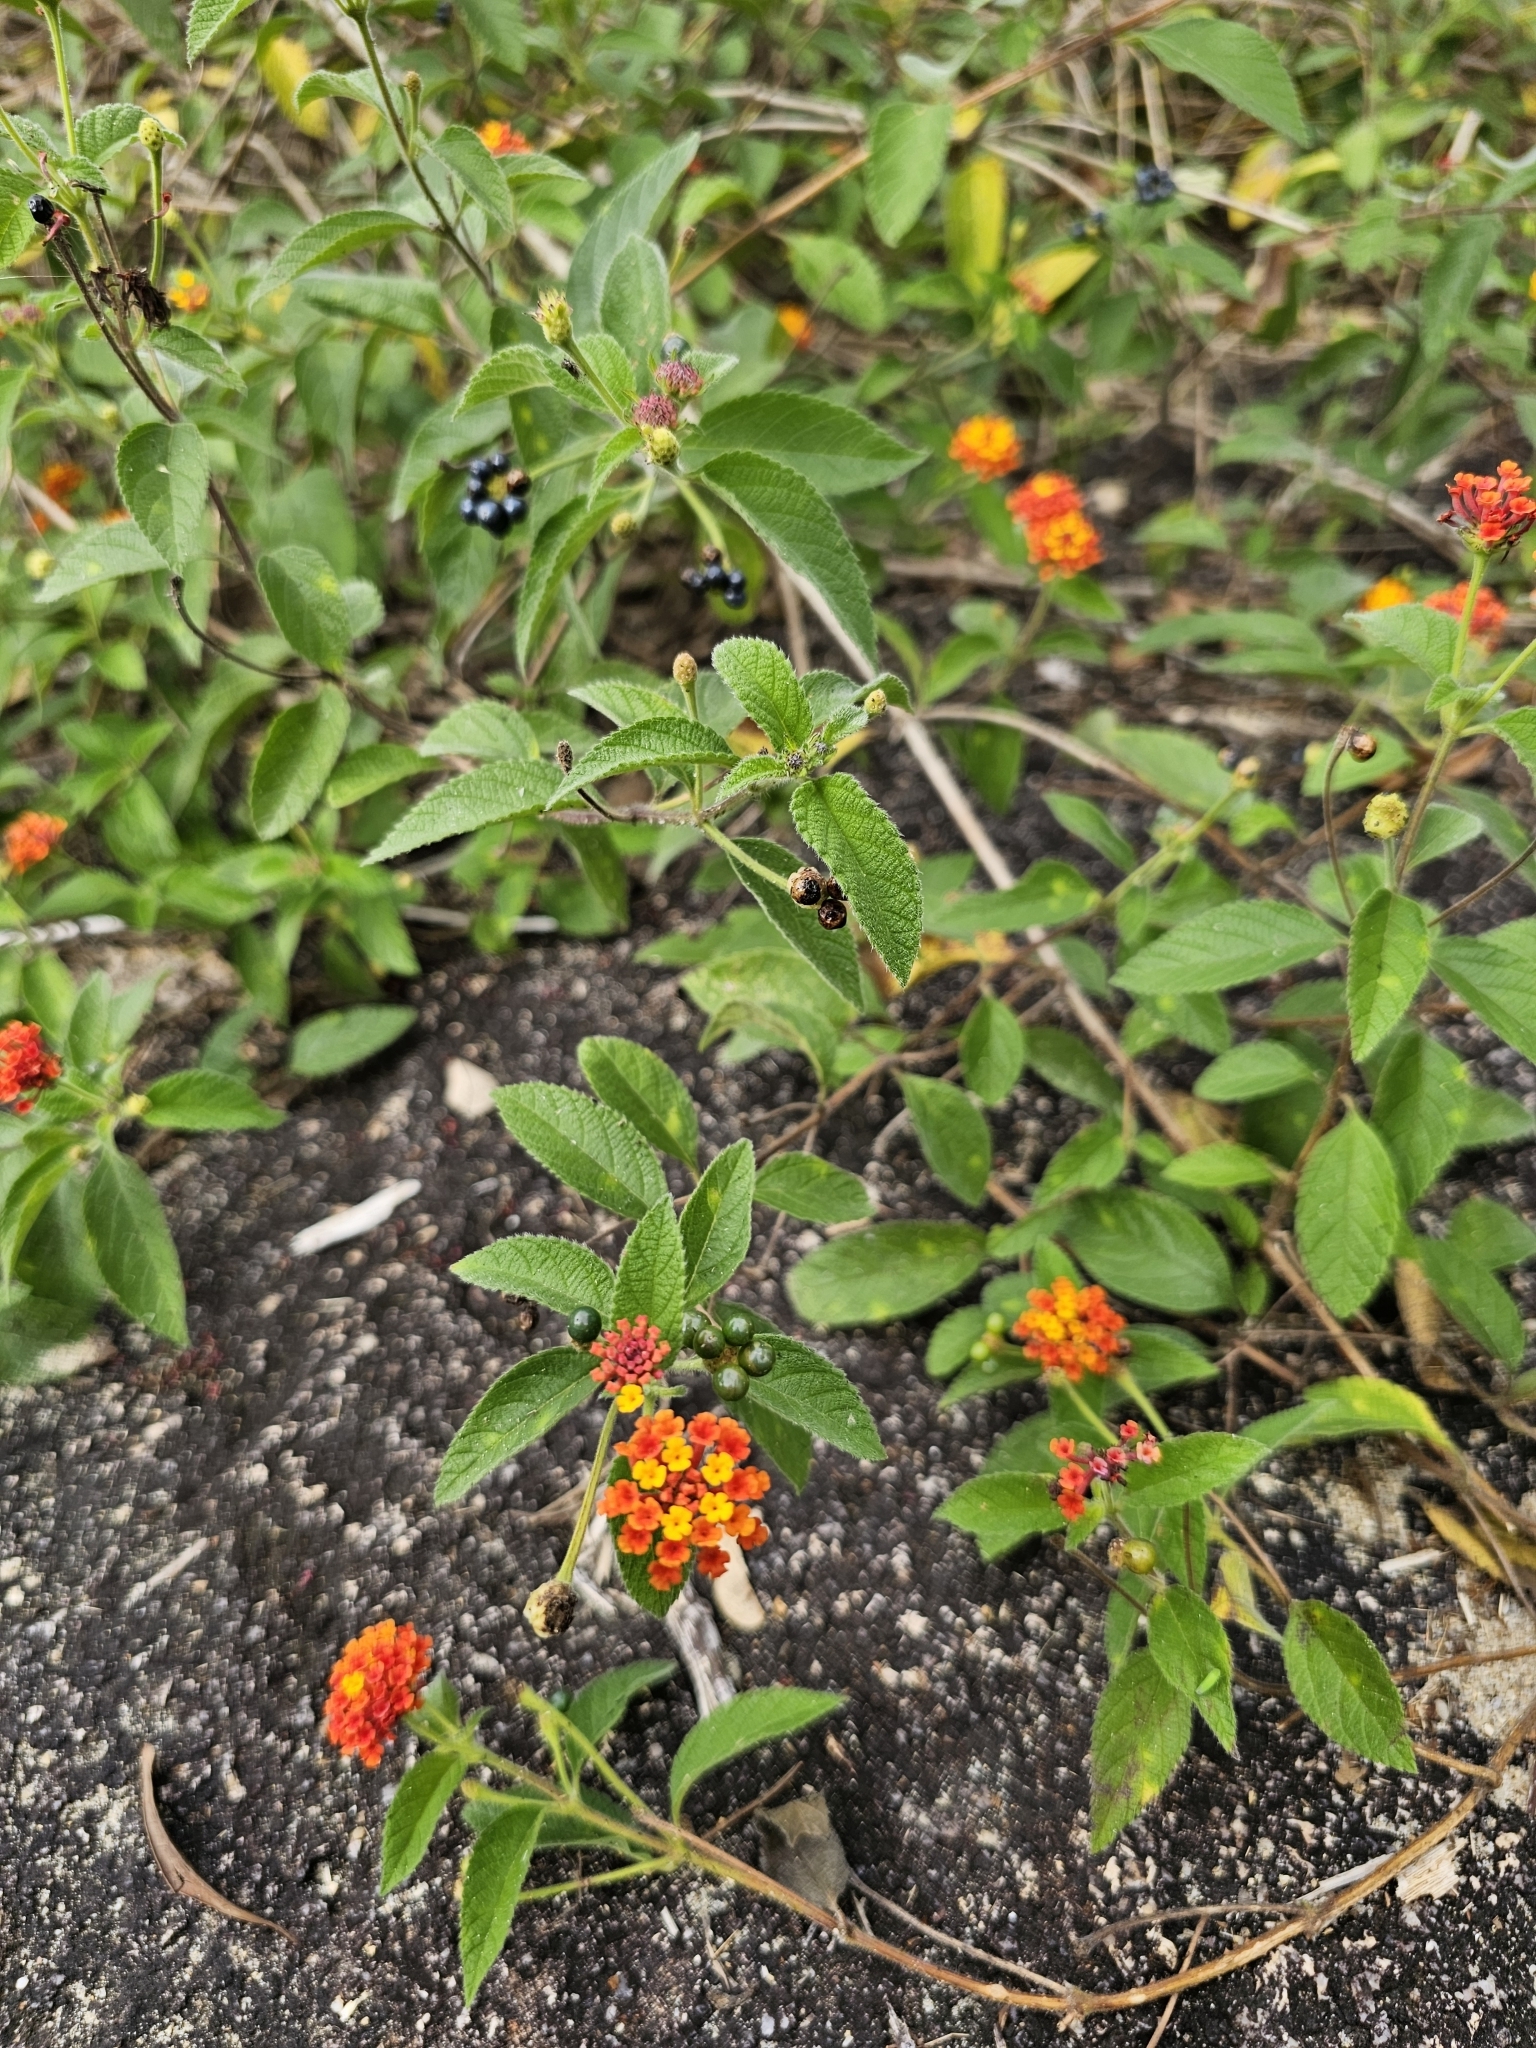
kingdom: Plantae
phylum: Tracheophyta
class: Magnoliopsida
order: Lamiales
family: Verbenaceae
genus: Lantana
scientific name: Lantana camara
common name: Lantana
